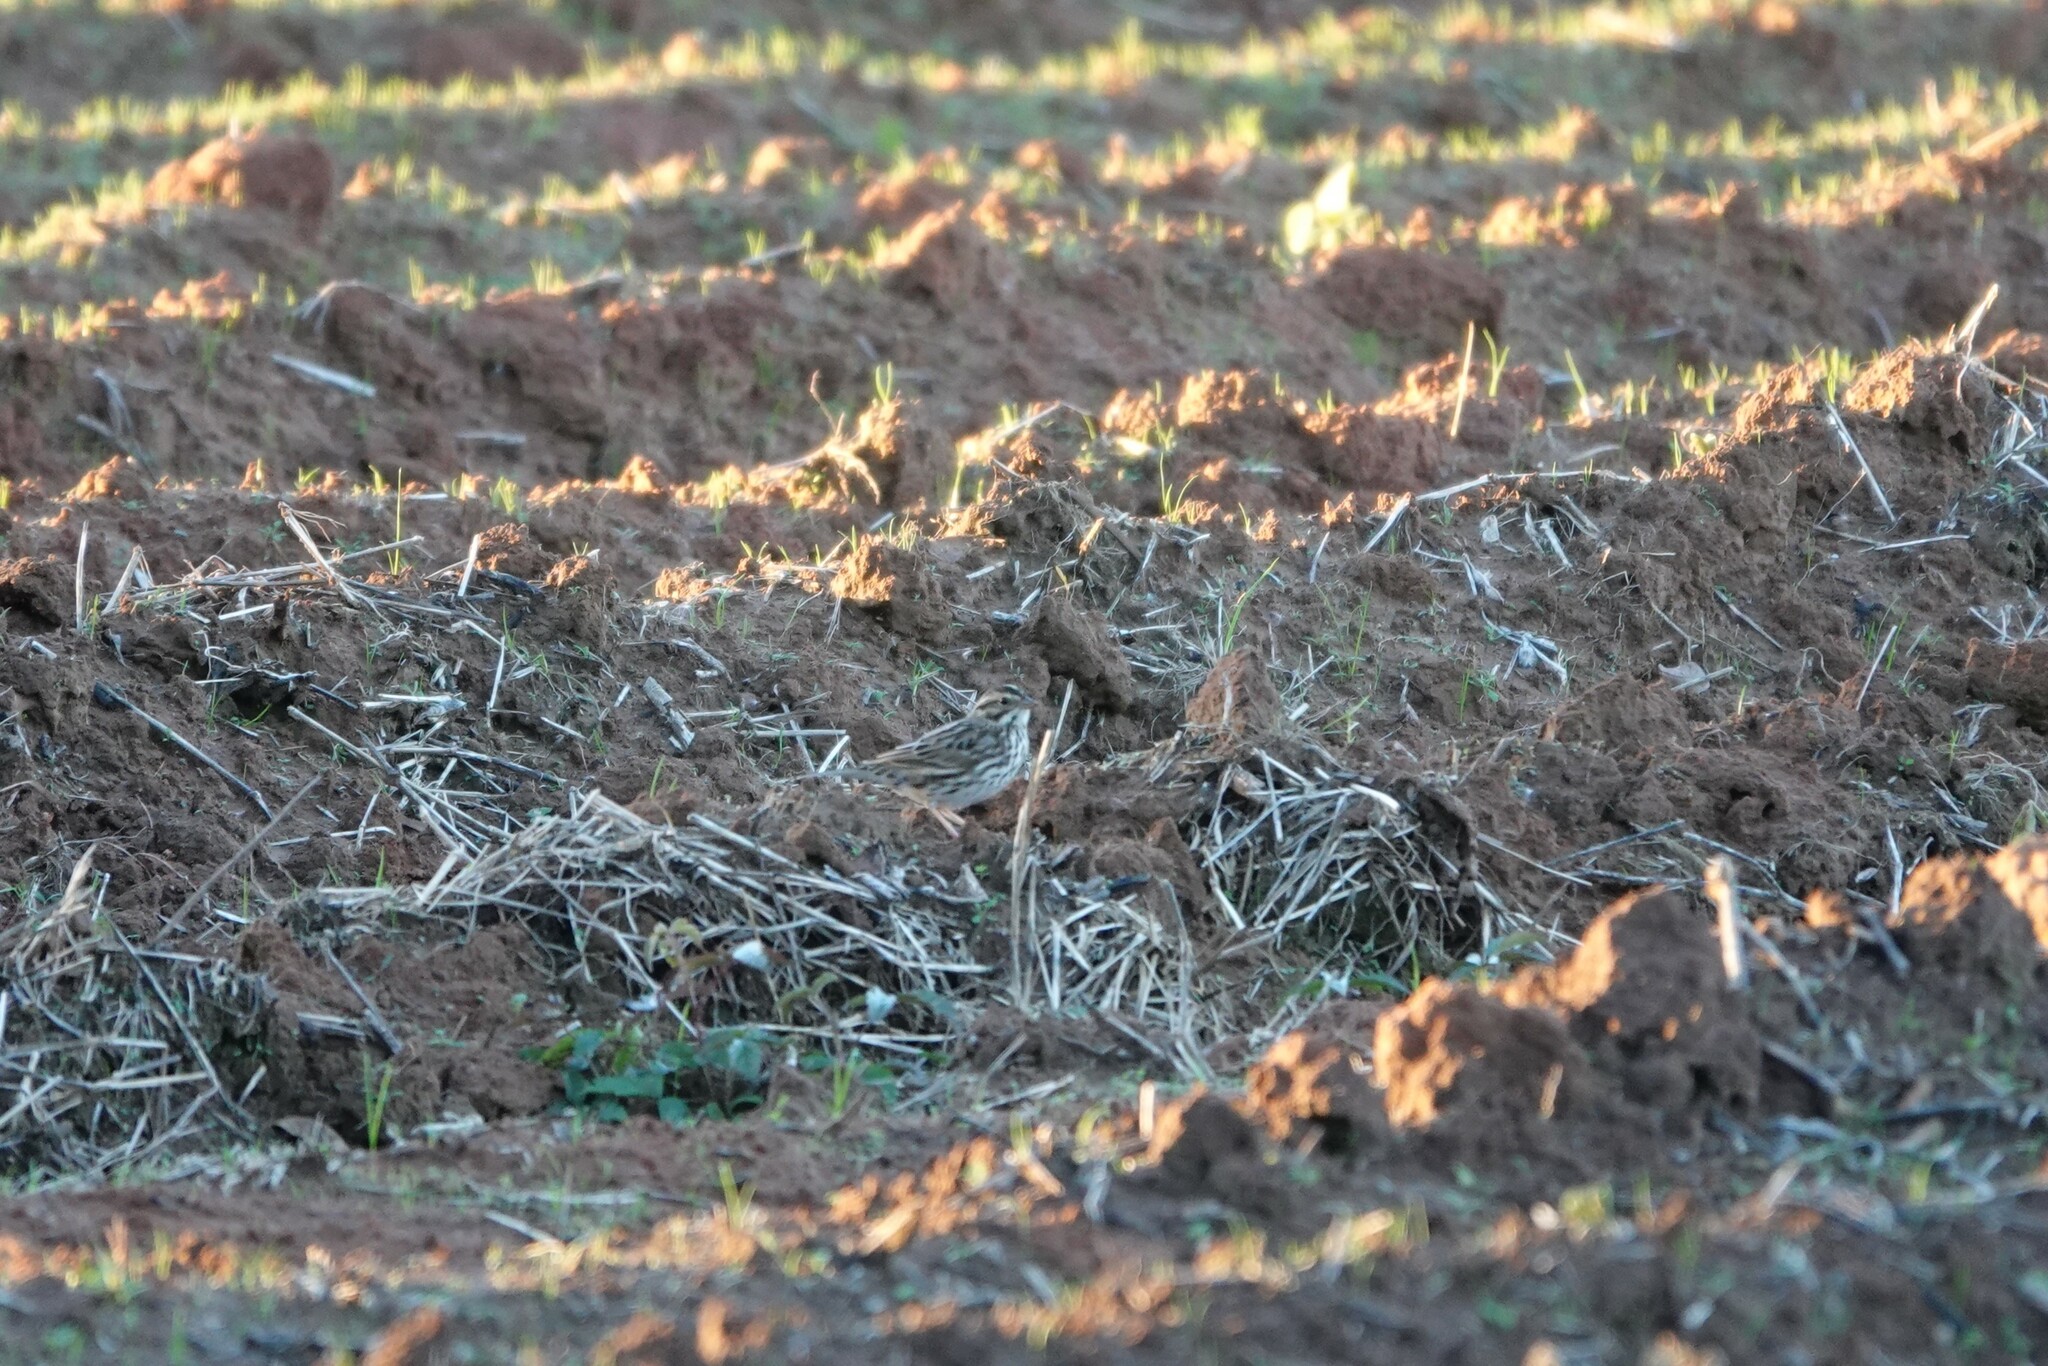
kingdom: Animalia
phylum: Chordata
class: Aves
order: Passeriformes
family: Passerellidae
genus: Passerculus
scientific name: Passerculus sandwichensis
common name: Savannah sparrow
